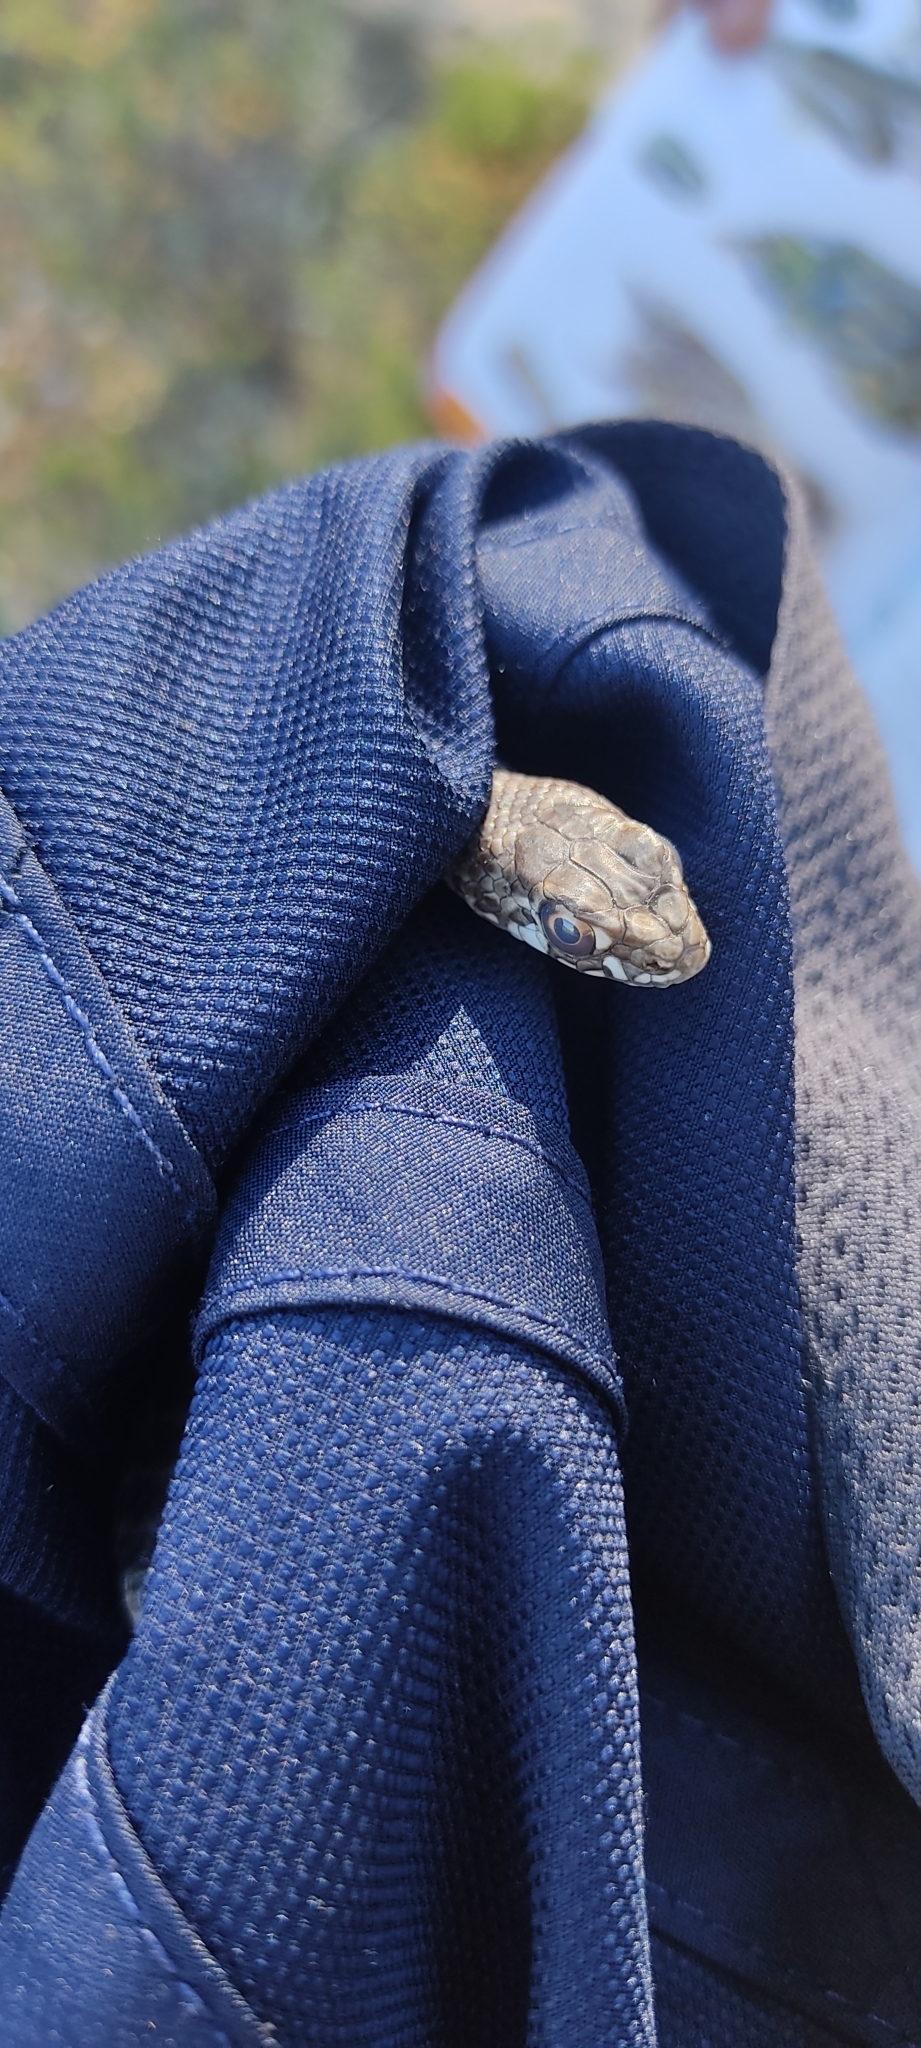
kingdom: Animalia
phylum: Chordata
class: Squamata
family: Psammophiidae
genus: Malpolon
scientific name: Malpolon monspessulanus
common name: Montpellier snake
